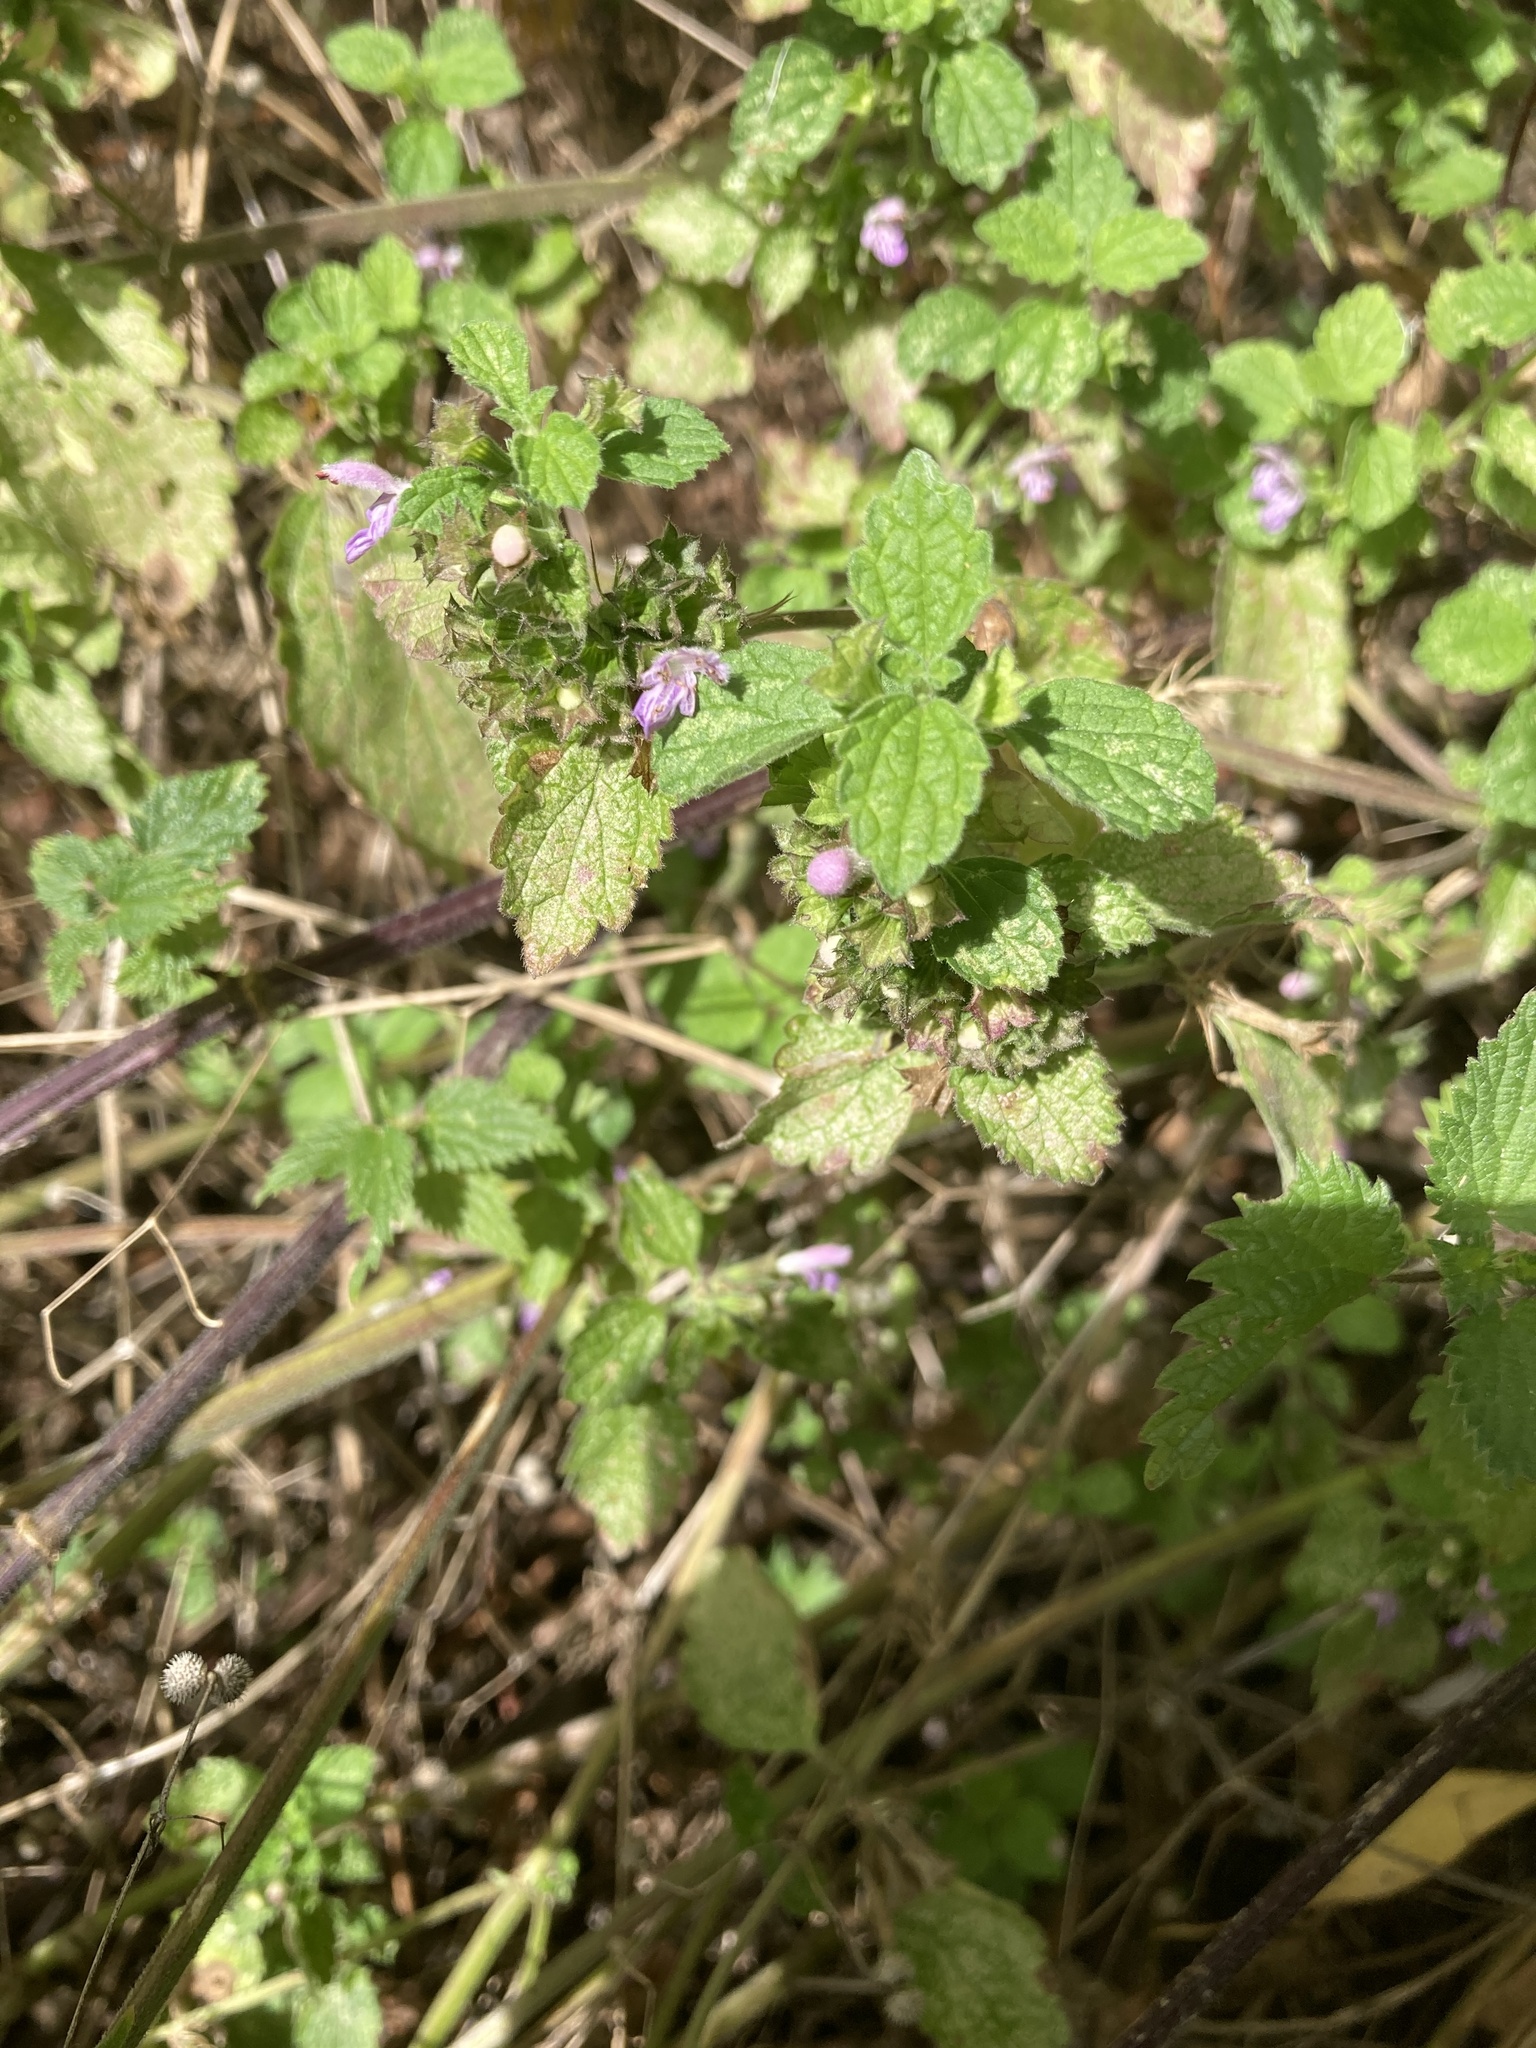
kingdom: Plantae
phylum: Tracheophyta
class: Magnoliopsida
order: Lamiales
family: Lamiaceae
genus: Ballota
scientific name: Ballota nigra
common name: Black horehound
